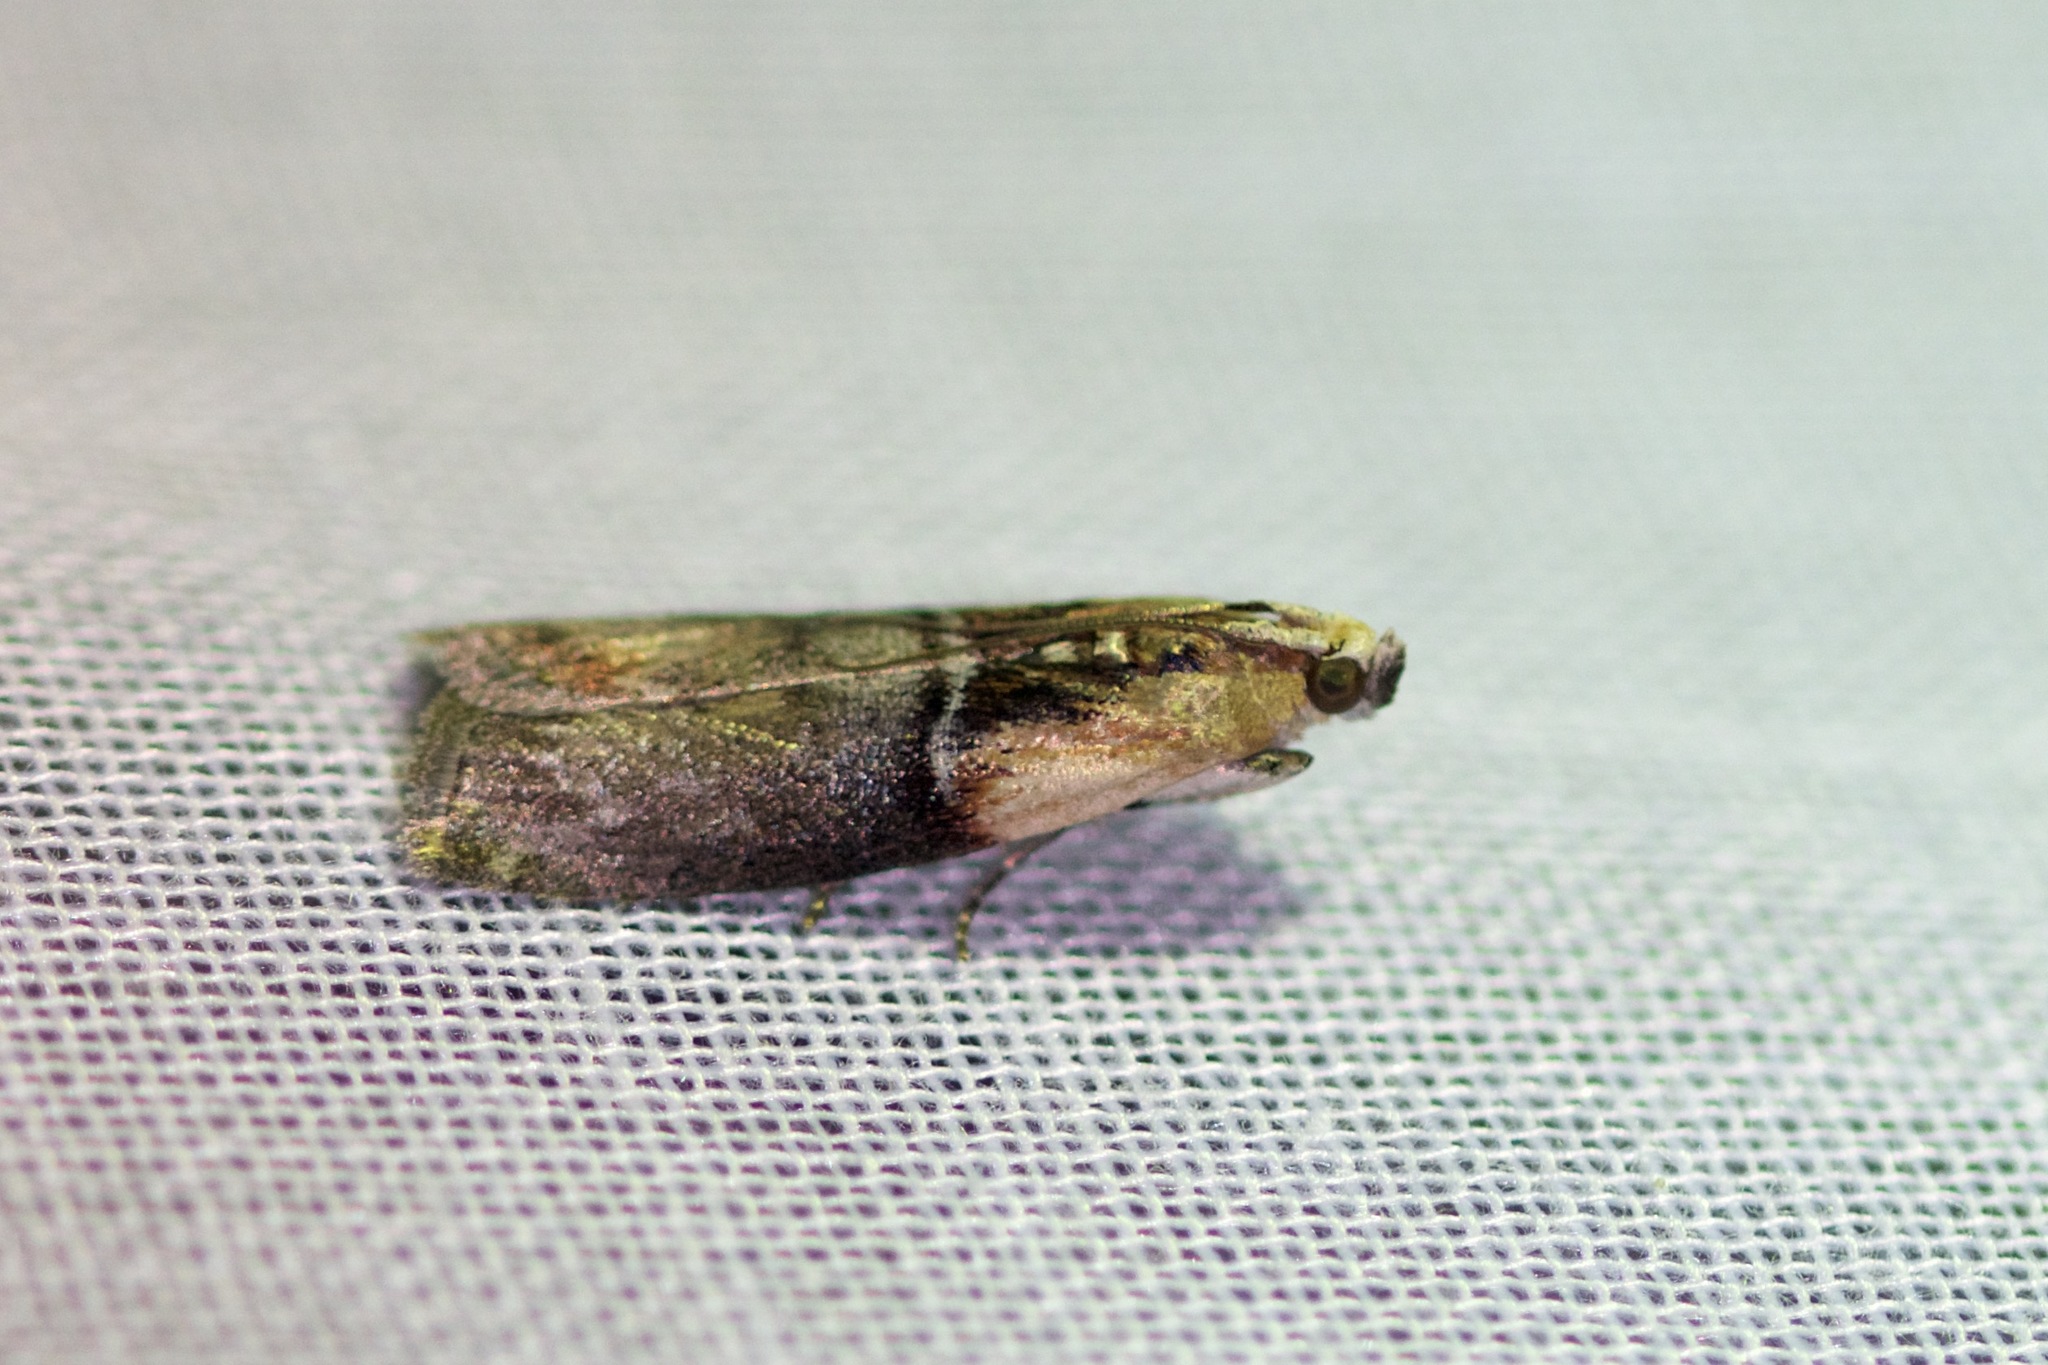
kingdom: Animalia
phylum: Arthropoda
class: Insecta
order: Lepidoptera
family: Pyralidae
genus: Sciota
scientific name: Sciota basilaris
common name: Yellow-shouldered leafroller
